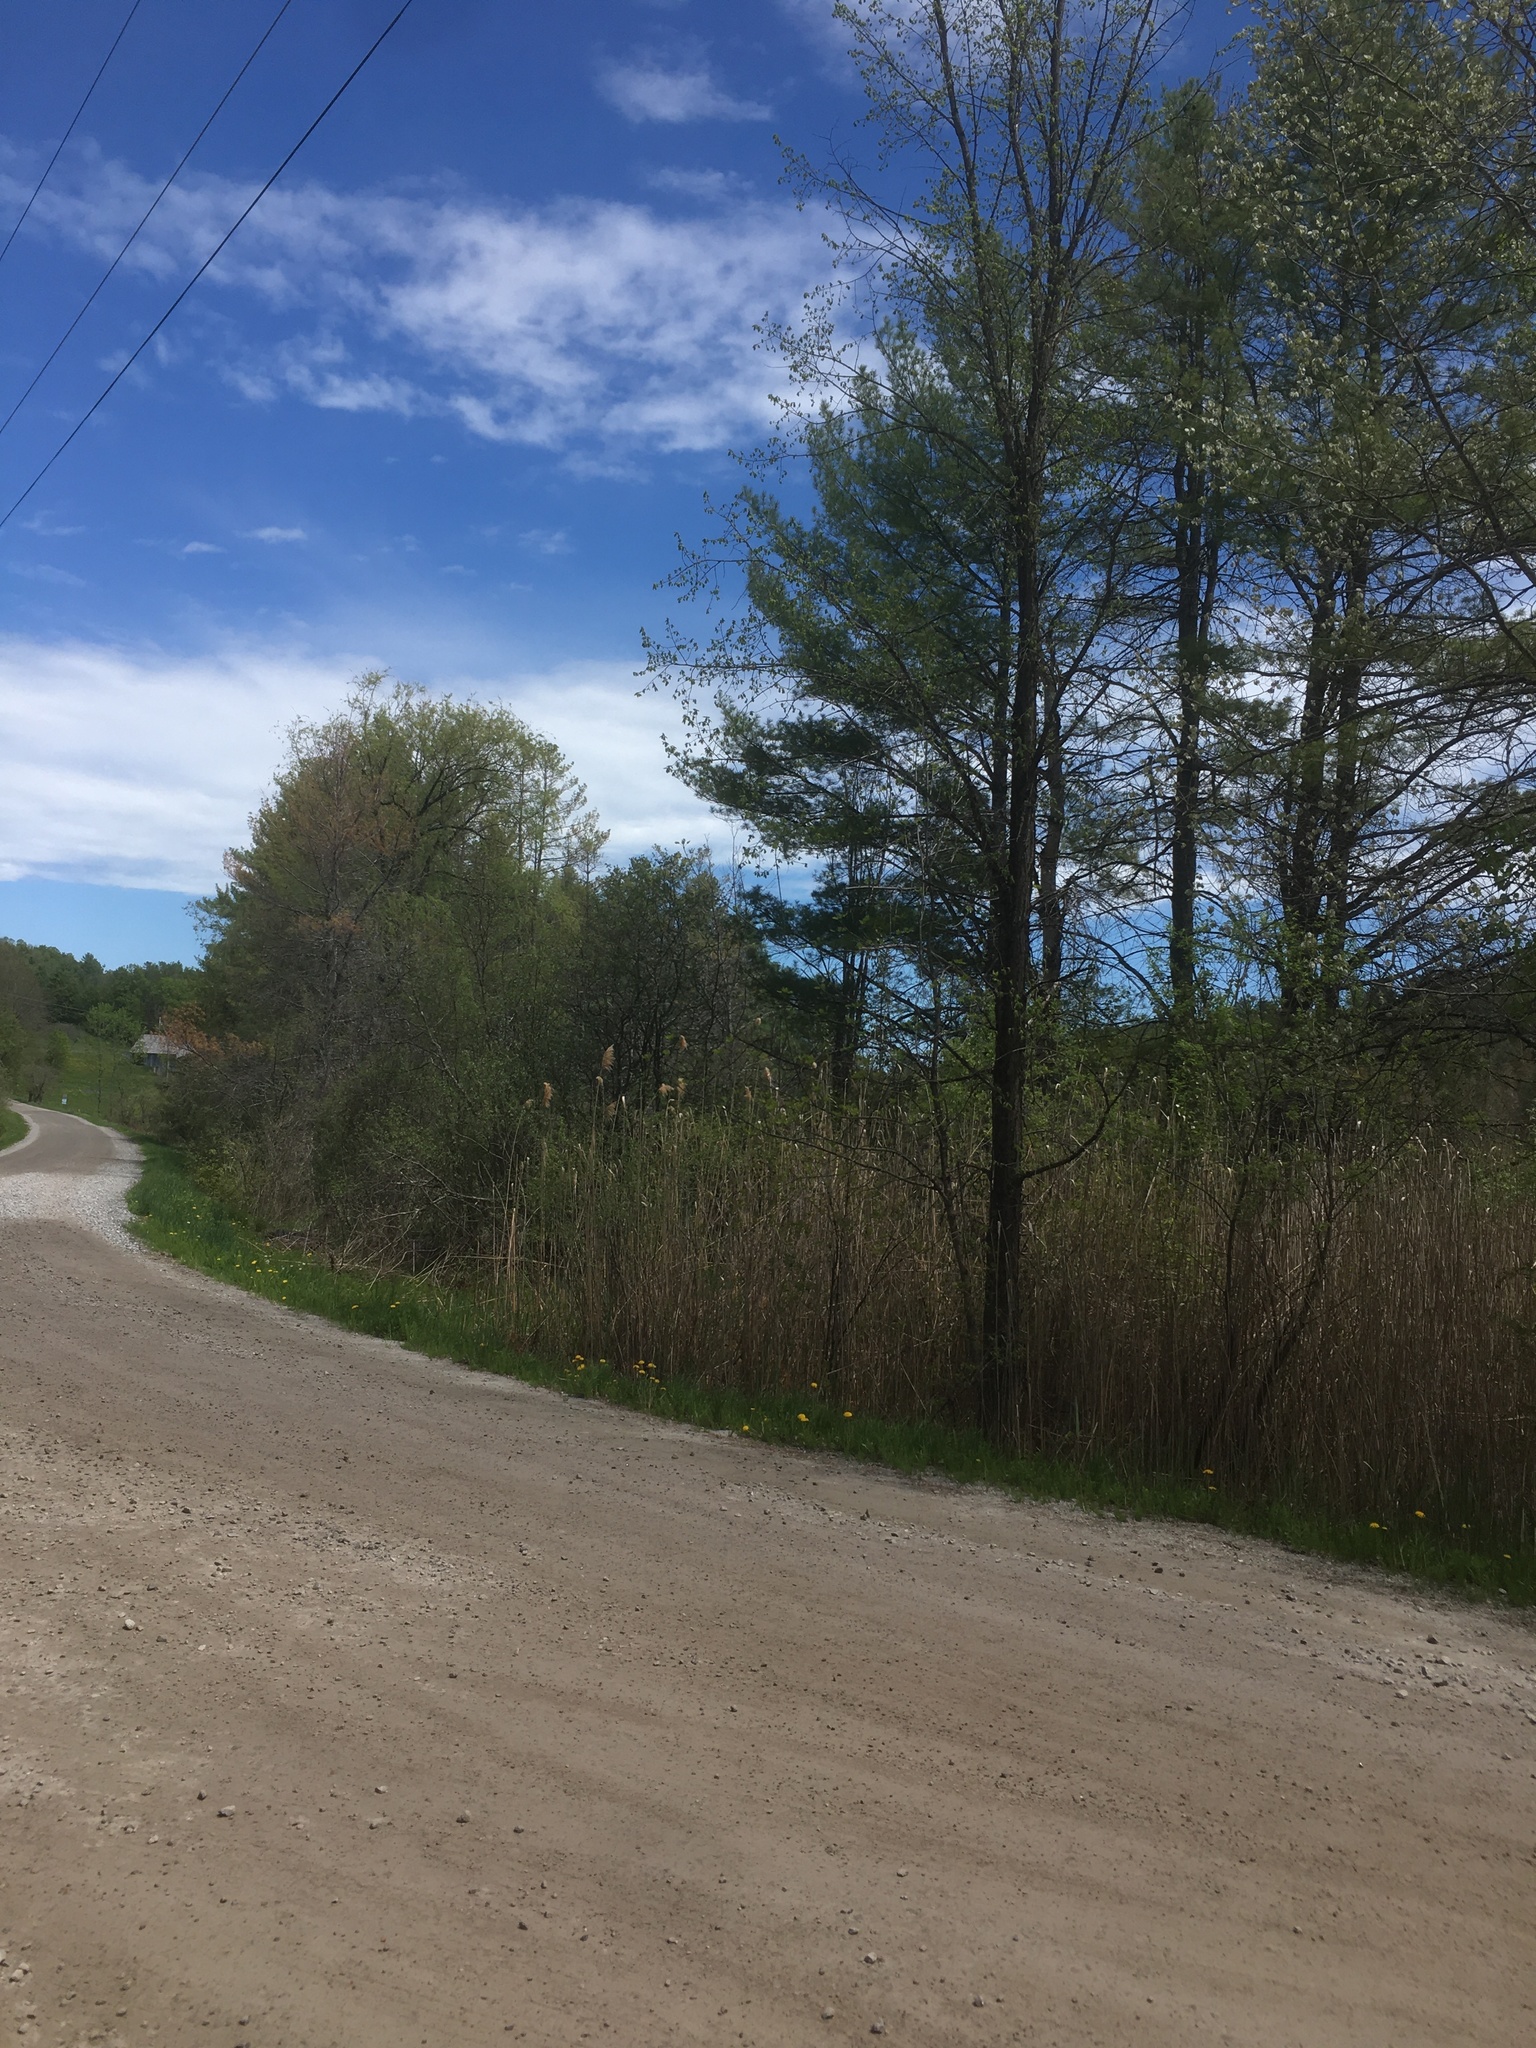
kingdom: Plantae
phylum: Tracheophyta
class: Liliopsida
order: Poales
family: Poaceae
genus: Phragmites
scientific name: Phragmites australis
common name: Common reed
